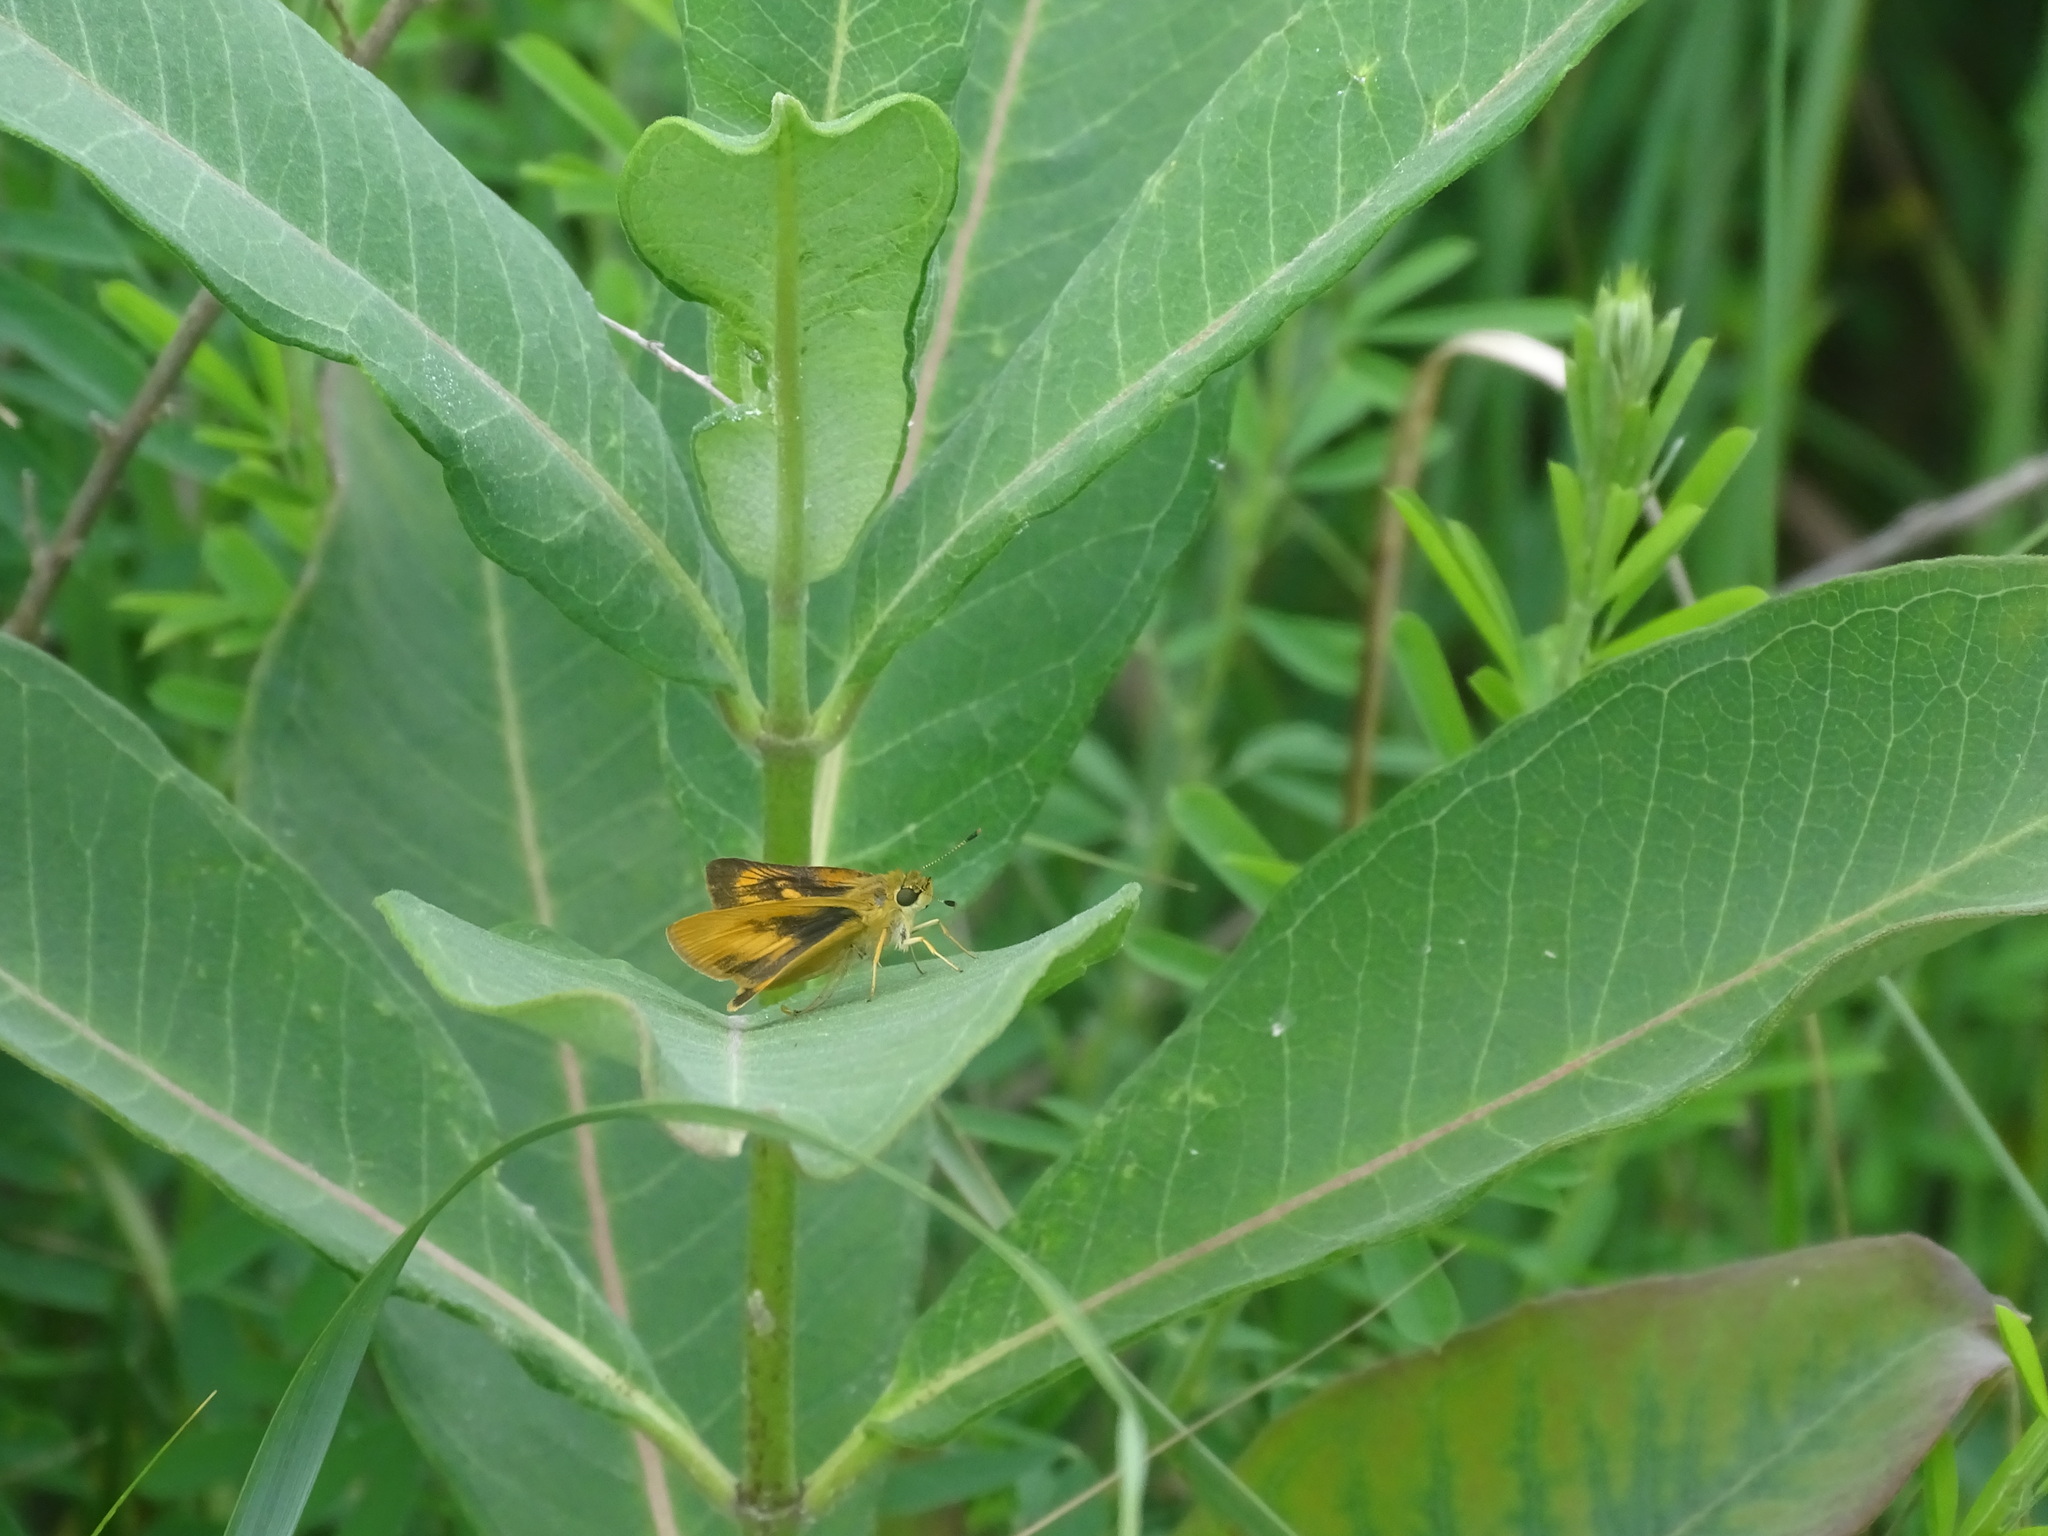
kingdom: Animalia
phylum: Arthropoda
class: Insecta
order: Lepidoptera
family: Hesperiidae
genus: Atrytone
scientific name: Atrytone delaware
